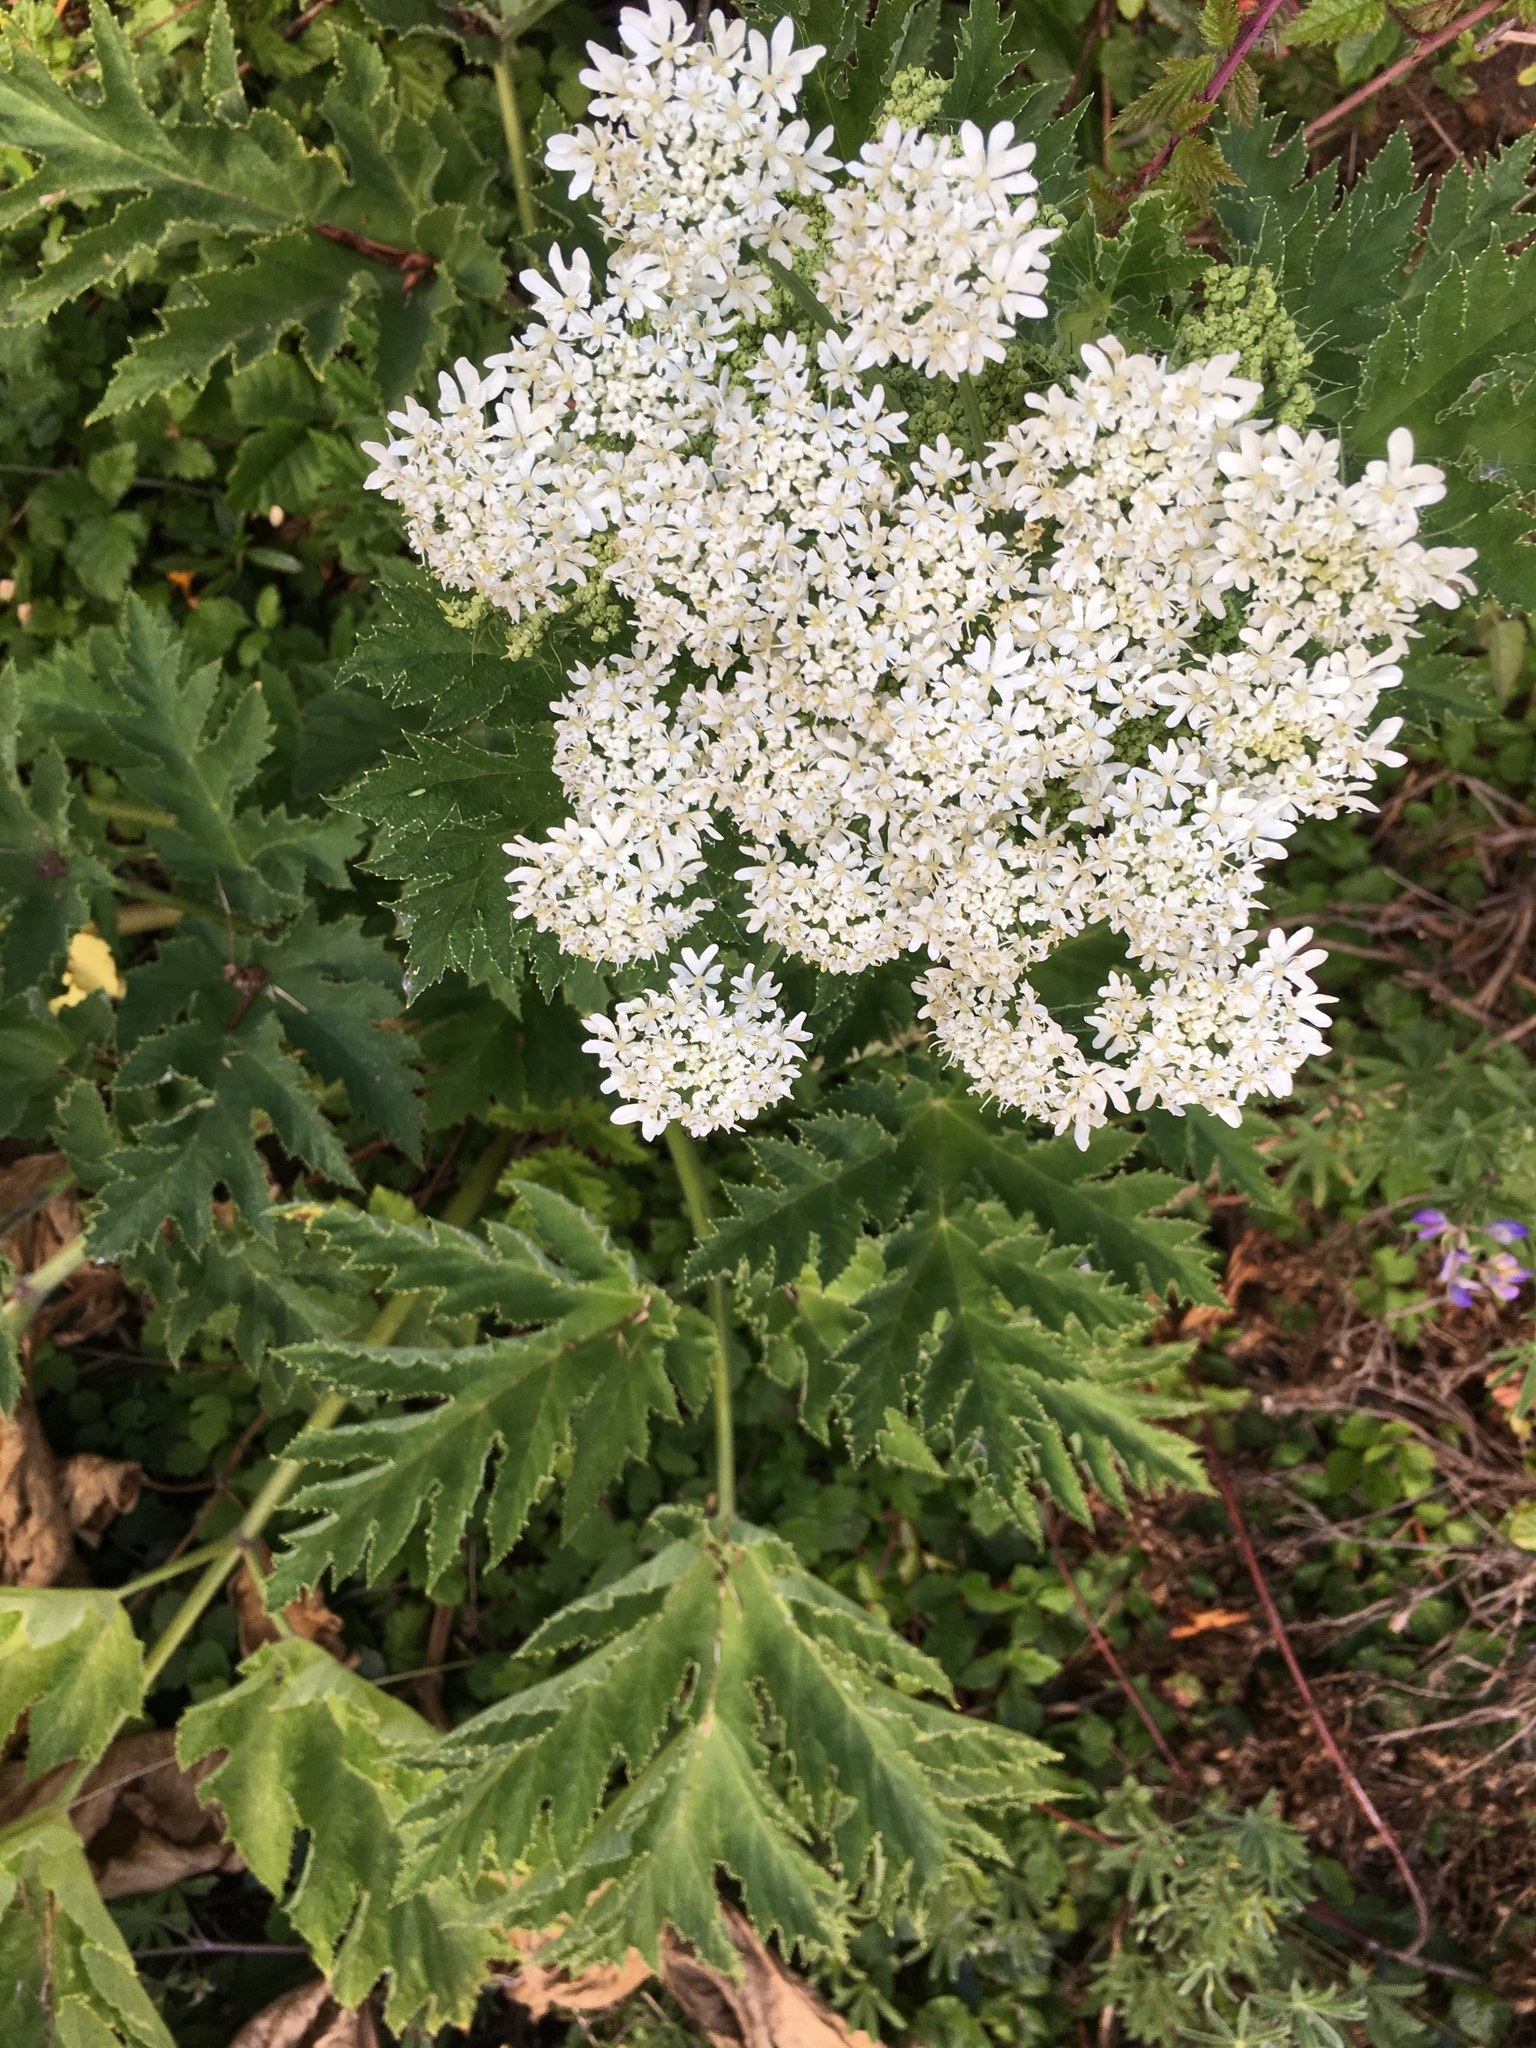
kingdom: Plantae
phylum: Tracheophyta
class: Magnoliopsida
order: Apiales
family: Apiaceae
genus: Heracleum
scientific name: Heracleum maximum
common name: American cow parsnip
